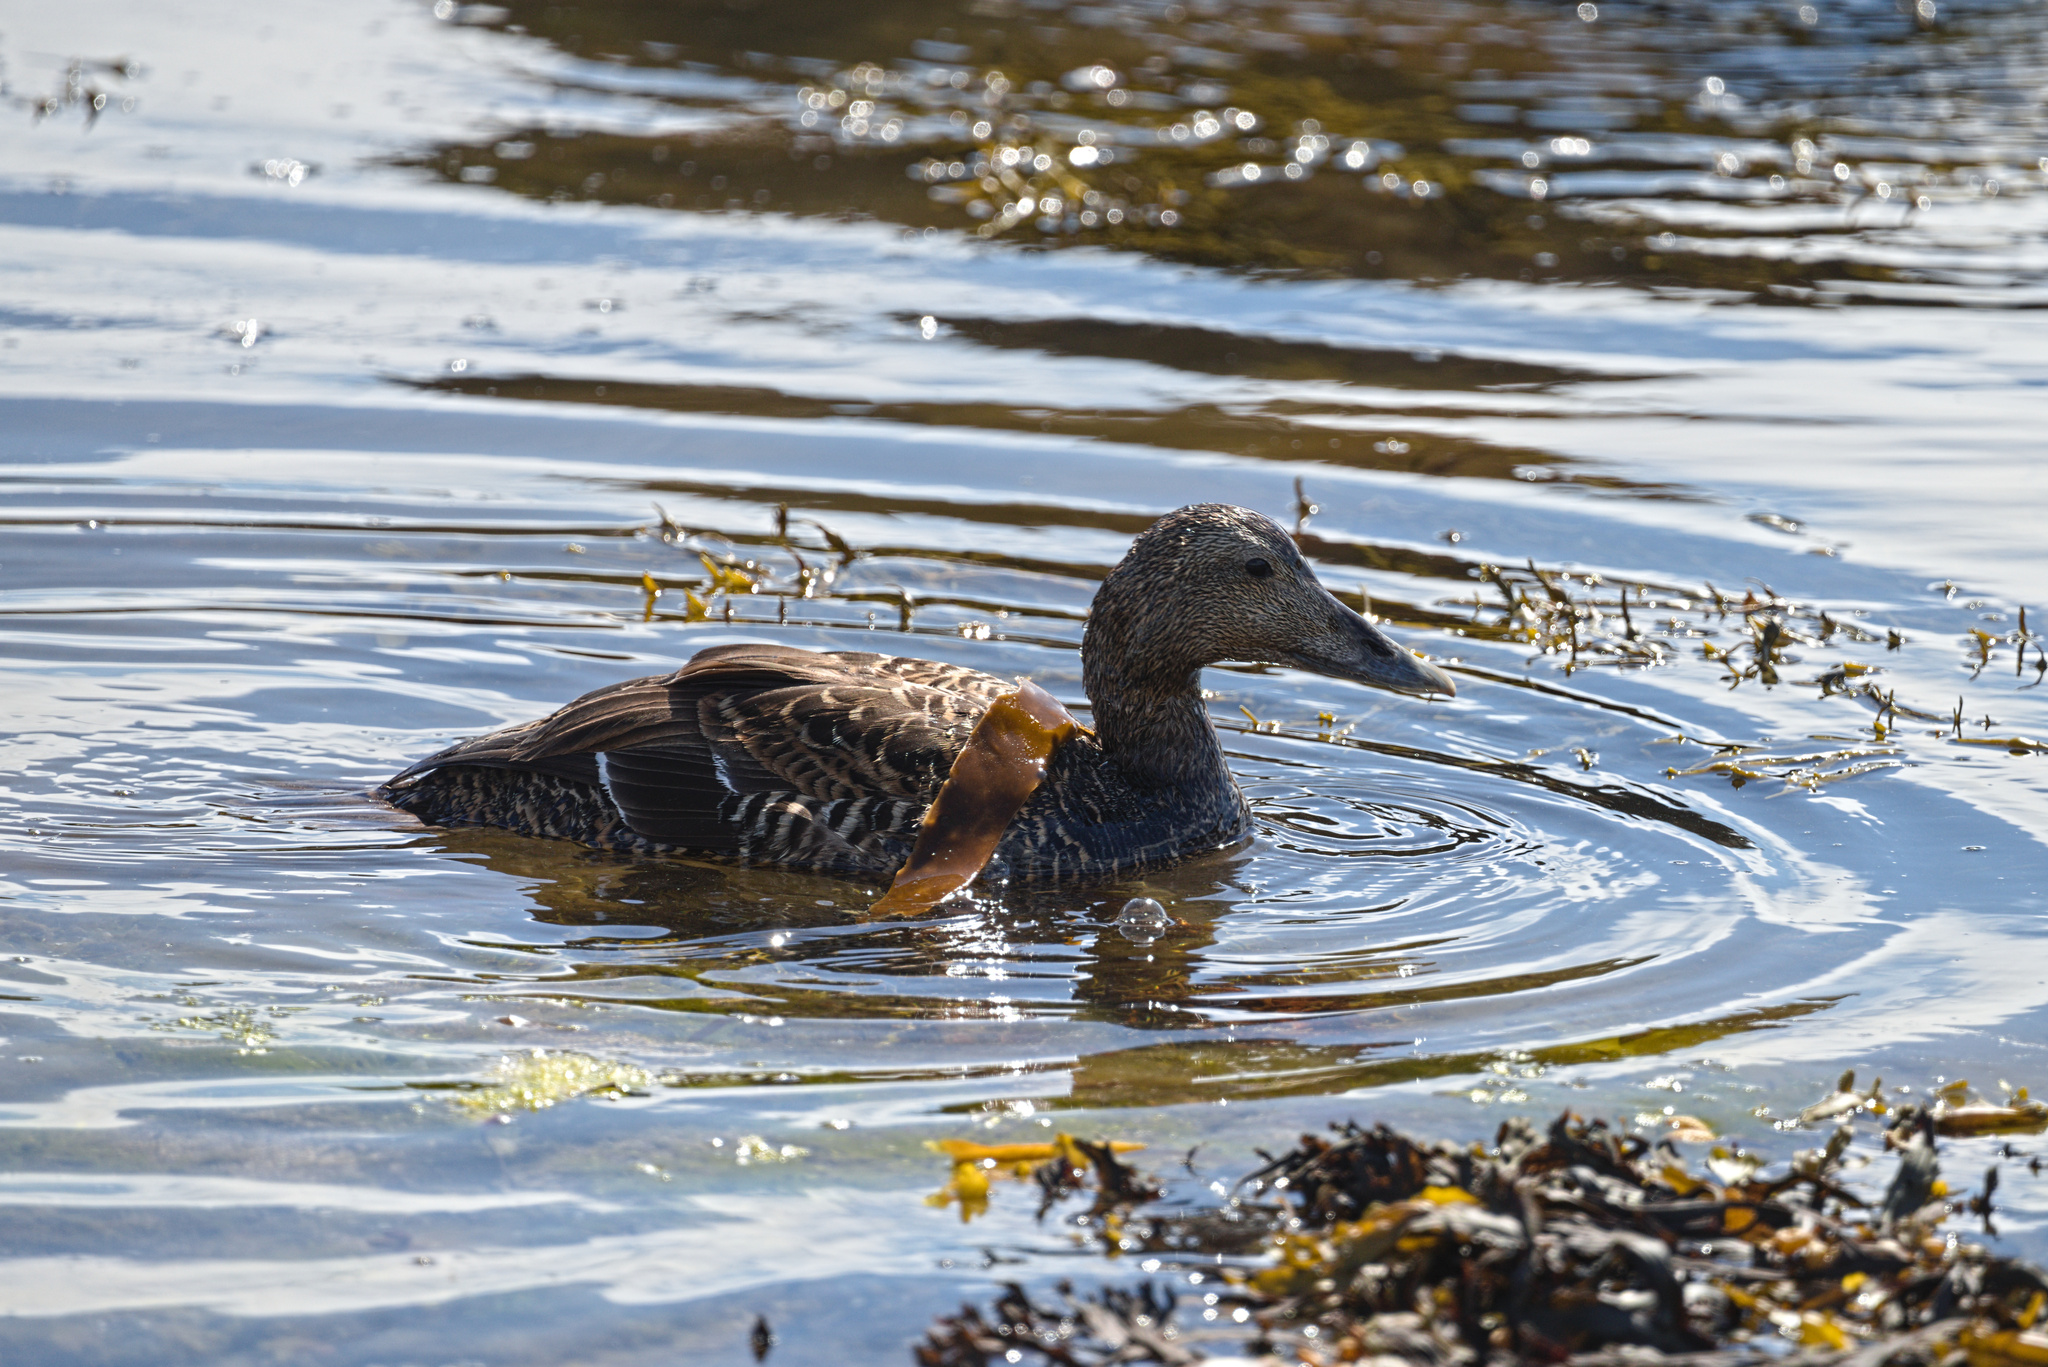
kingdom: Animalia
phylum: Chordata
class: Aves
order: Anseriformes
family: Anatidae
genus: Somateria
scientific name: Somateria mollissima
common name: Common eider
